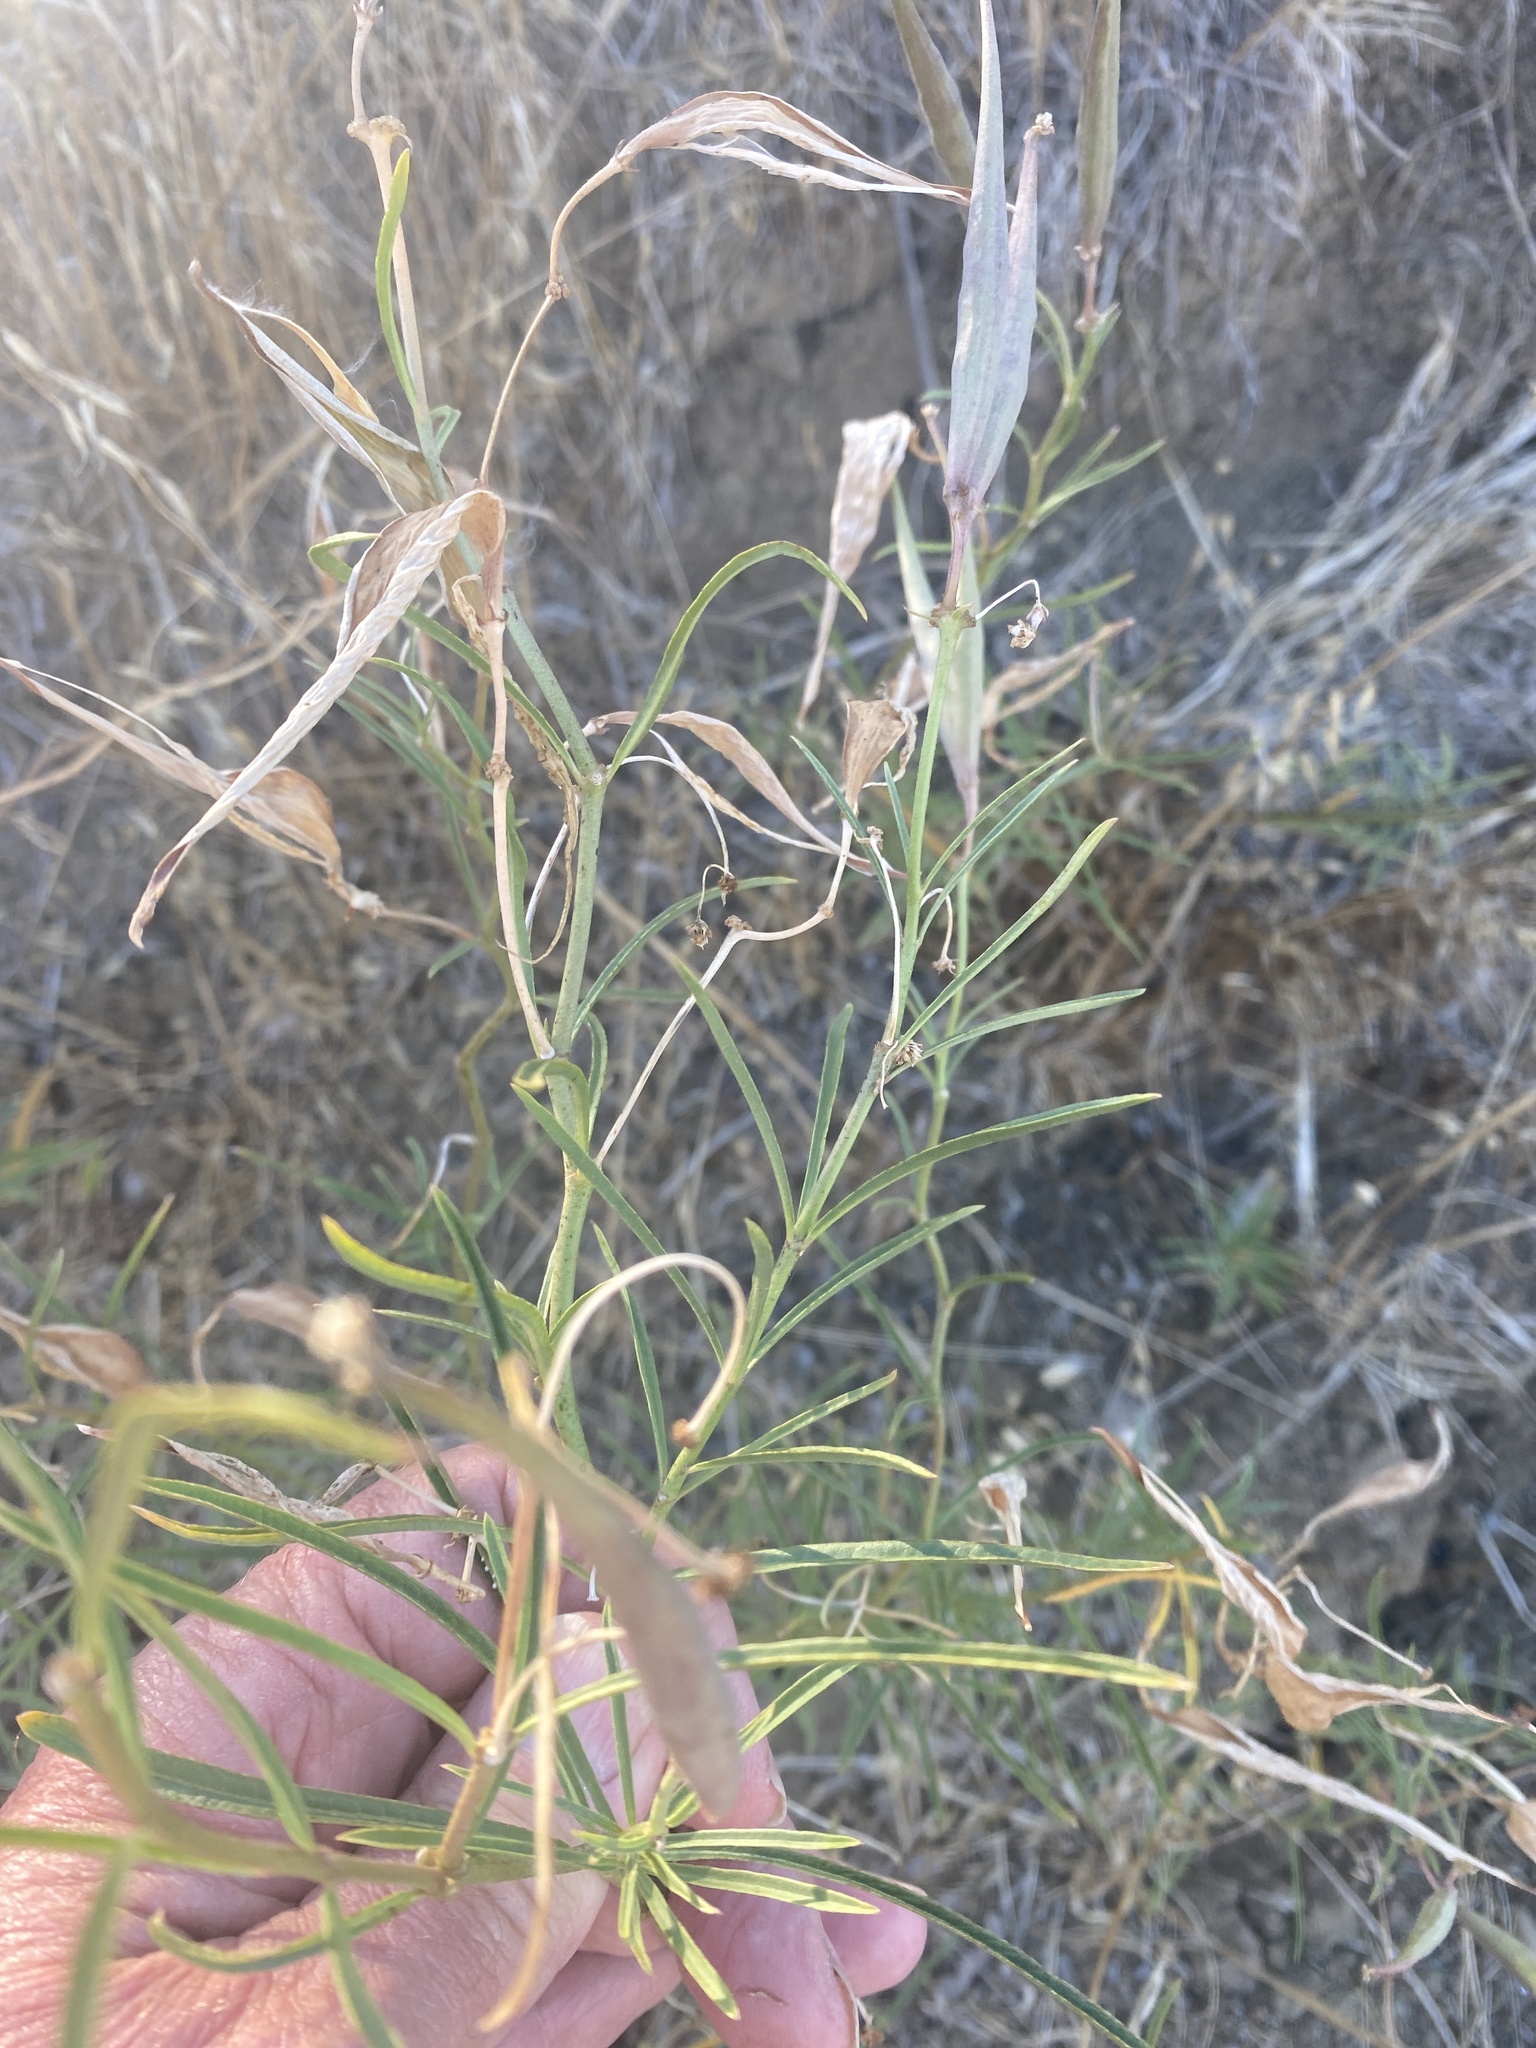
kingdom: Plantae
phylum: Tracheophyta
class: Magnoliopsida
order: Gentianales
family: Apocynaceae
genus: Asclepias
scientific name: Asclepias fascicularis
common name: Mexican milkweed
